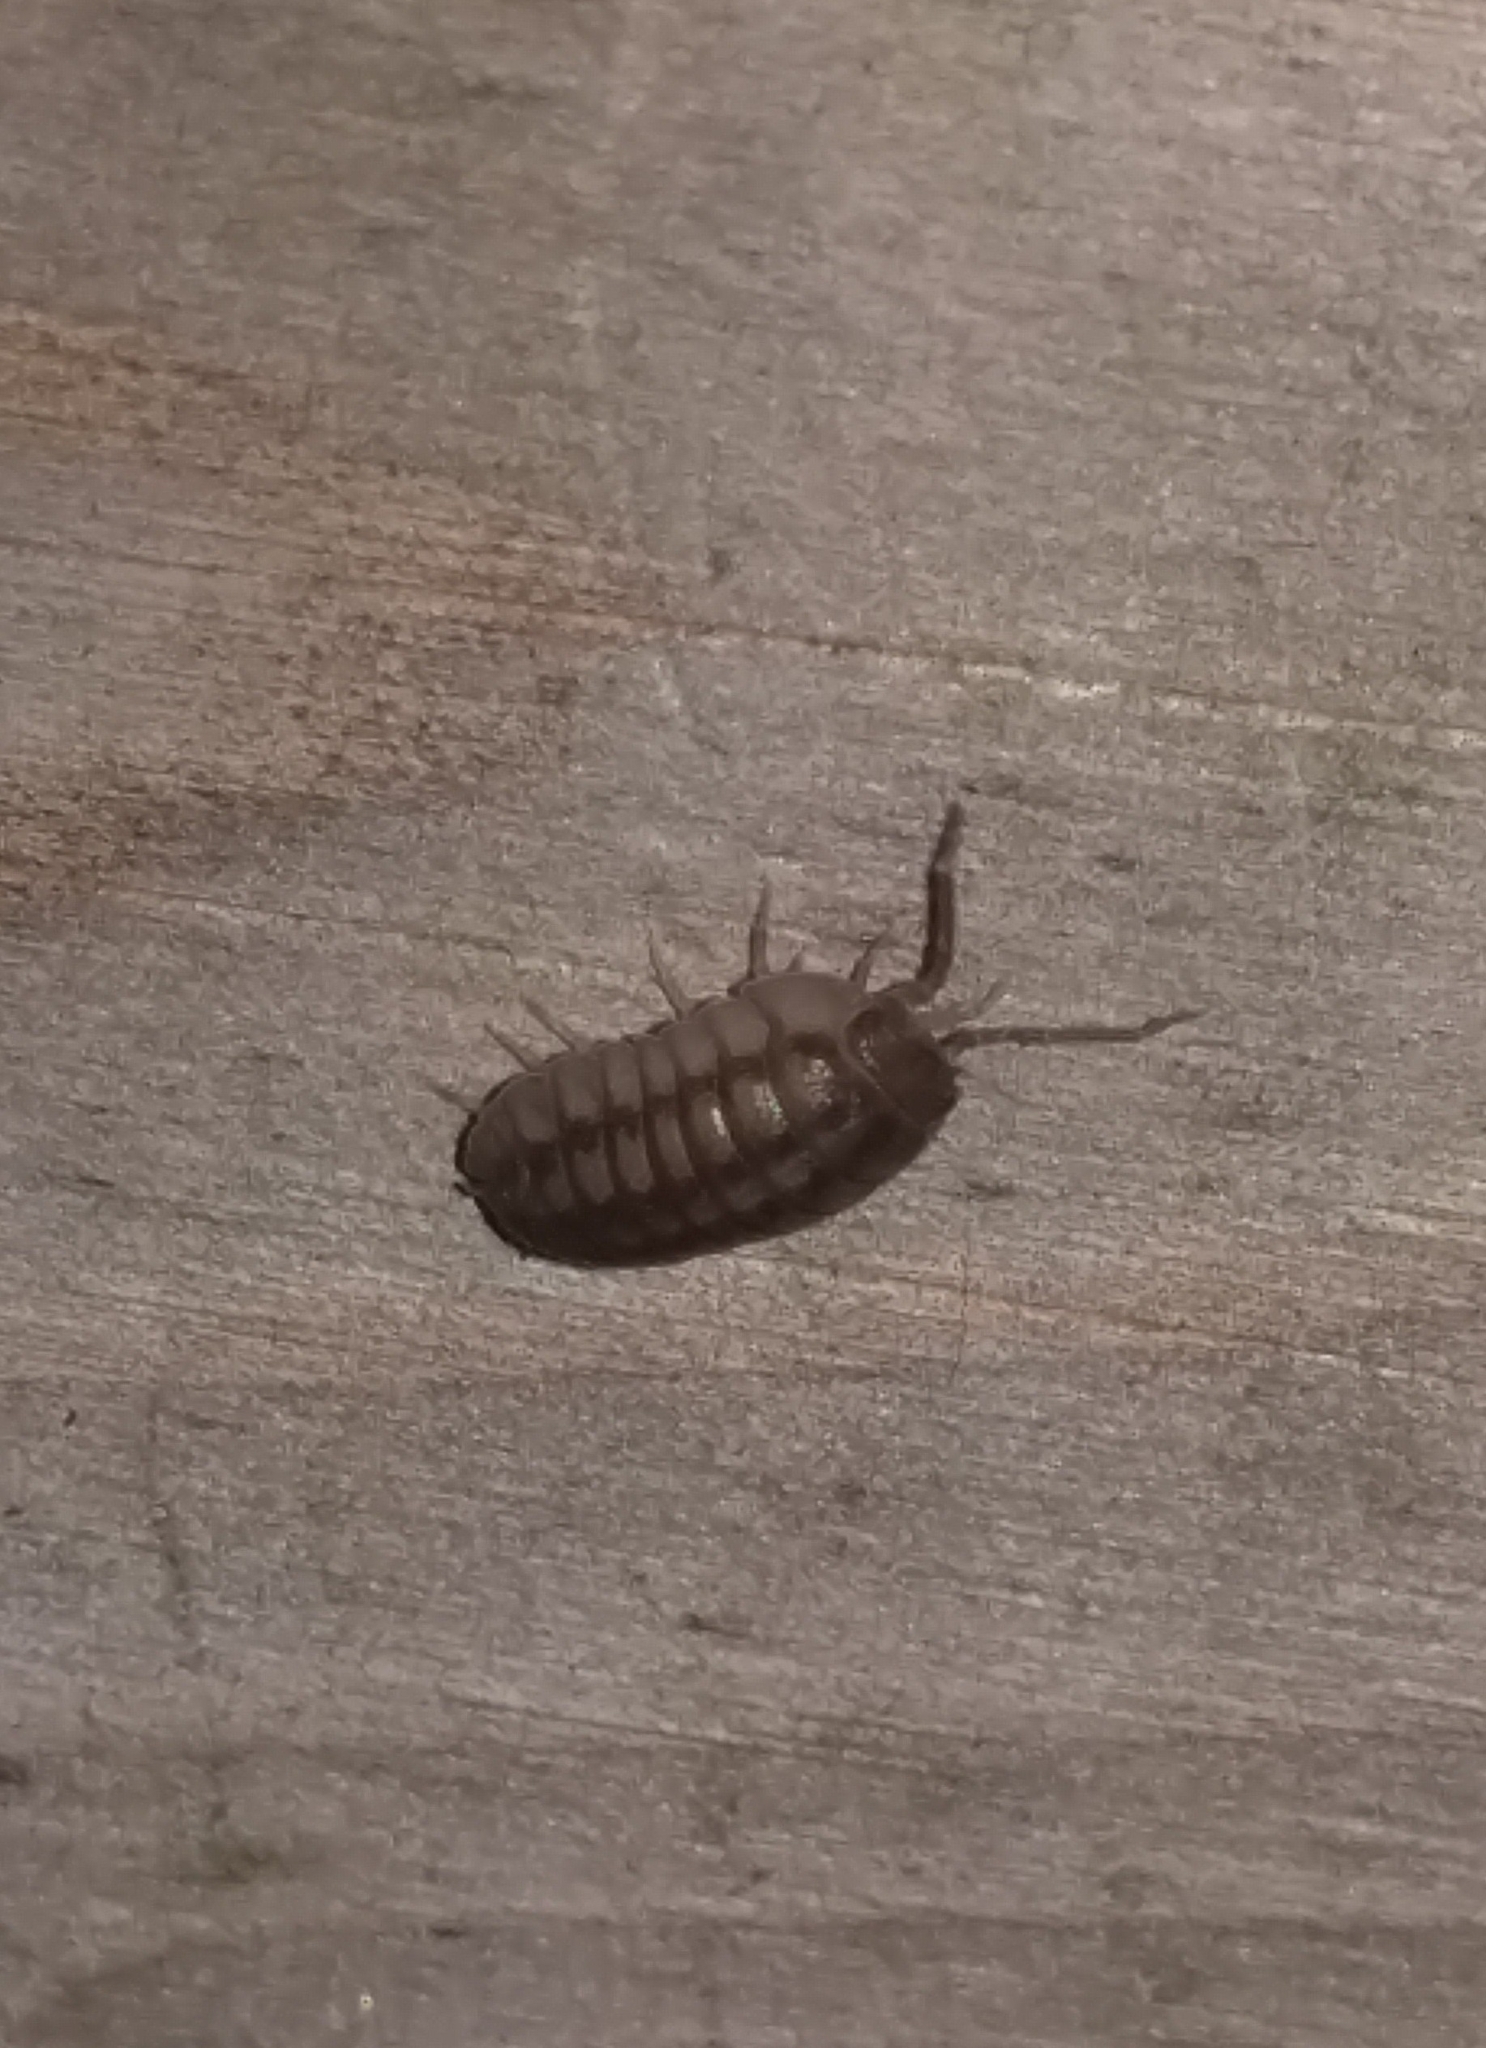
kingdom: Animalia
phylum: Arthropoda
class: Malacostraca
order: Isopoda
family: Armadillidiidae
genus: Armadillidium
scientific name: Armadillidium nasatum
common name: Isopod
